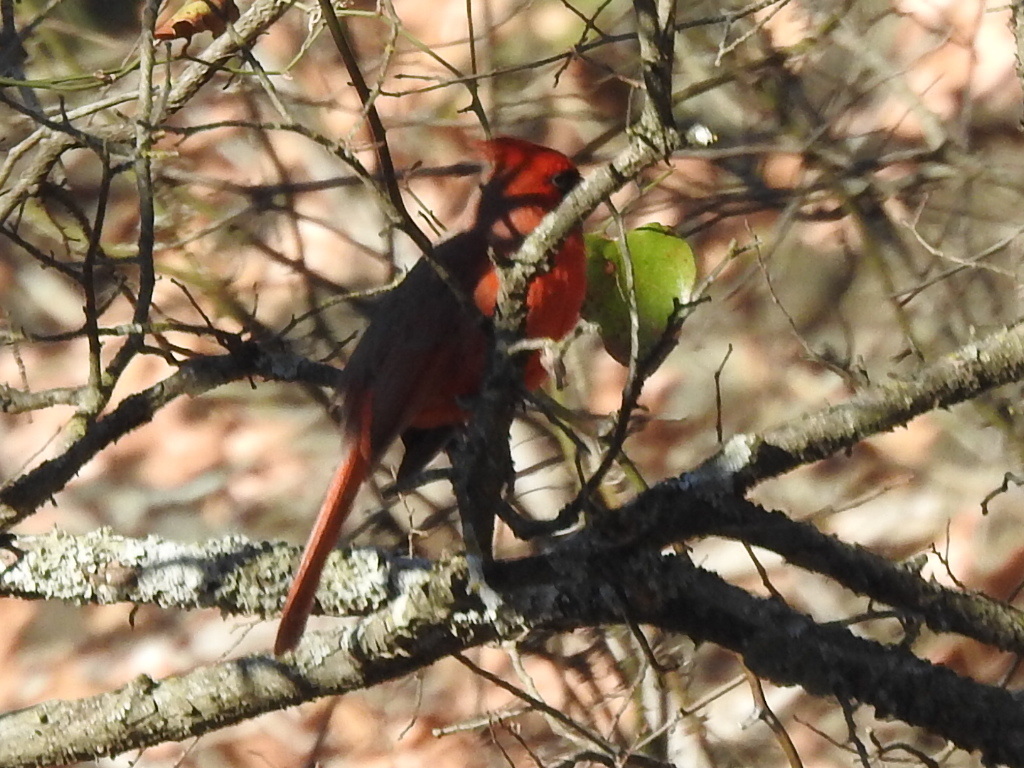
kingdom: Animalia
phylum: Chordata
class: Aves
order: Passeriformes
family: Cardinalidae
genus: Cardinalis
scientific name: Cardinalis cardinalis
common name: Northern cardinal
